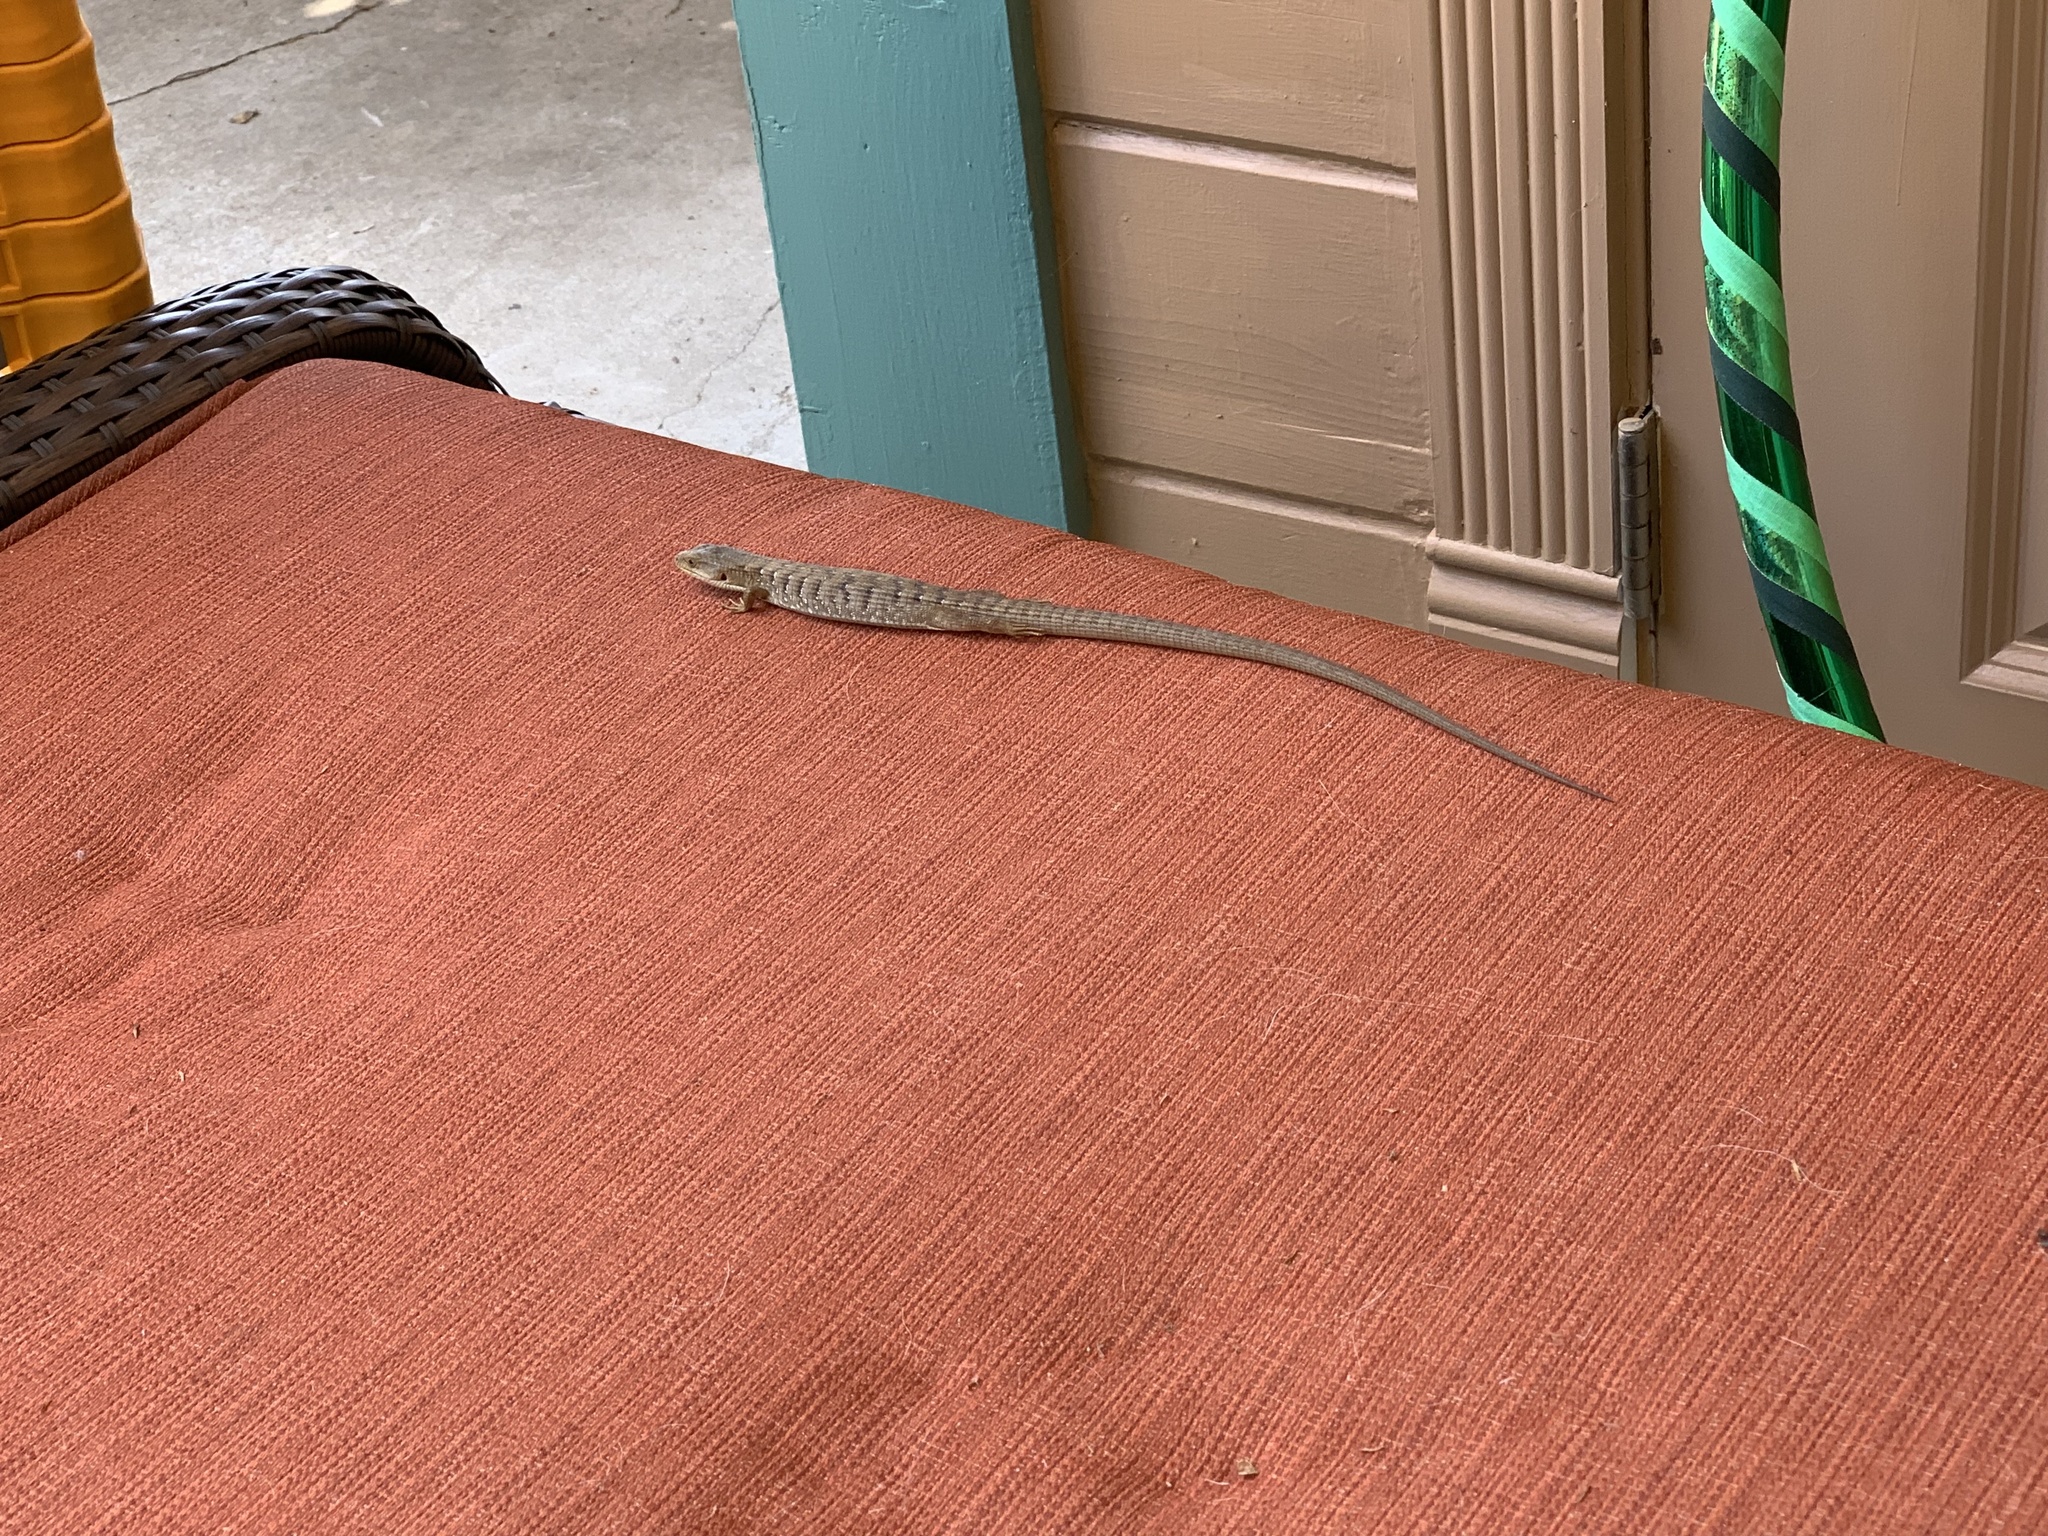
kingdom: Animalia
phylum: Chordata
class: Squamata
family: Anguidae
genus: Elgaria
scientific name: Elgaria multicarinata
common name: Southern alligator lizard
